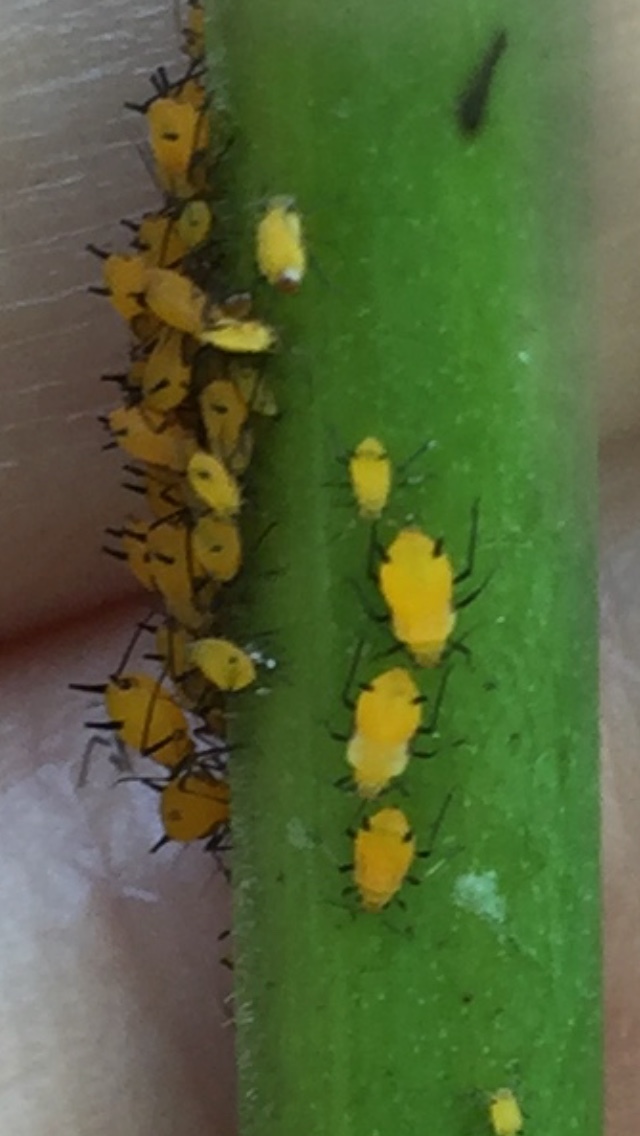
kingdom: Animalia
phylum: Arthropoda
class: Insecta
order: Hemiptera
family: Aphididae
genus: Aphis
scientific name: Aphis nerii
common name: Oleander aphid
